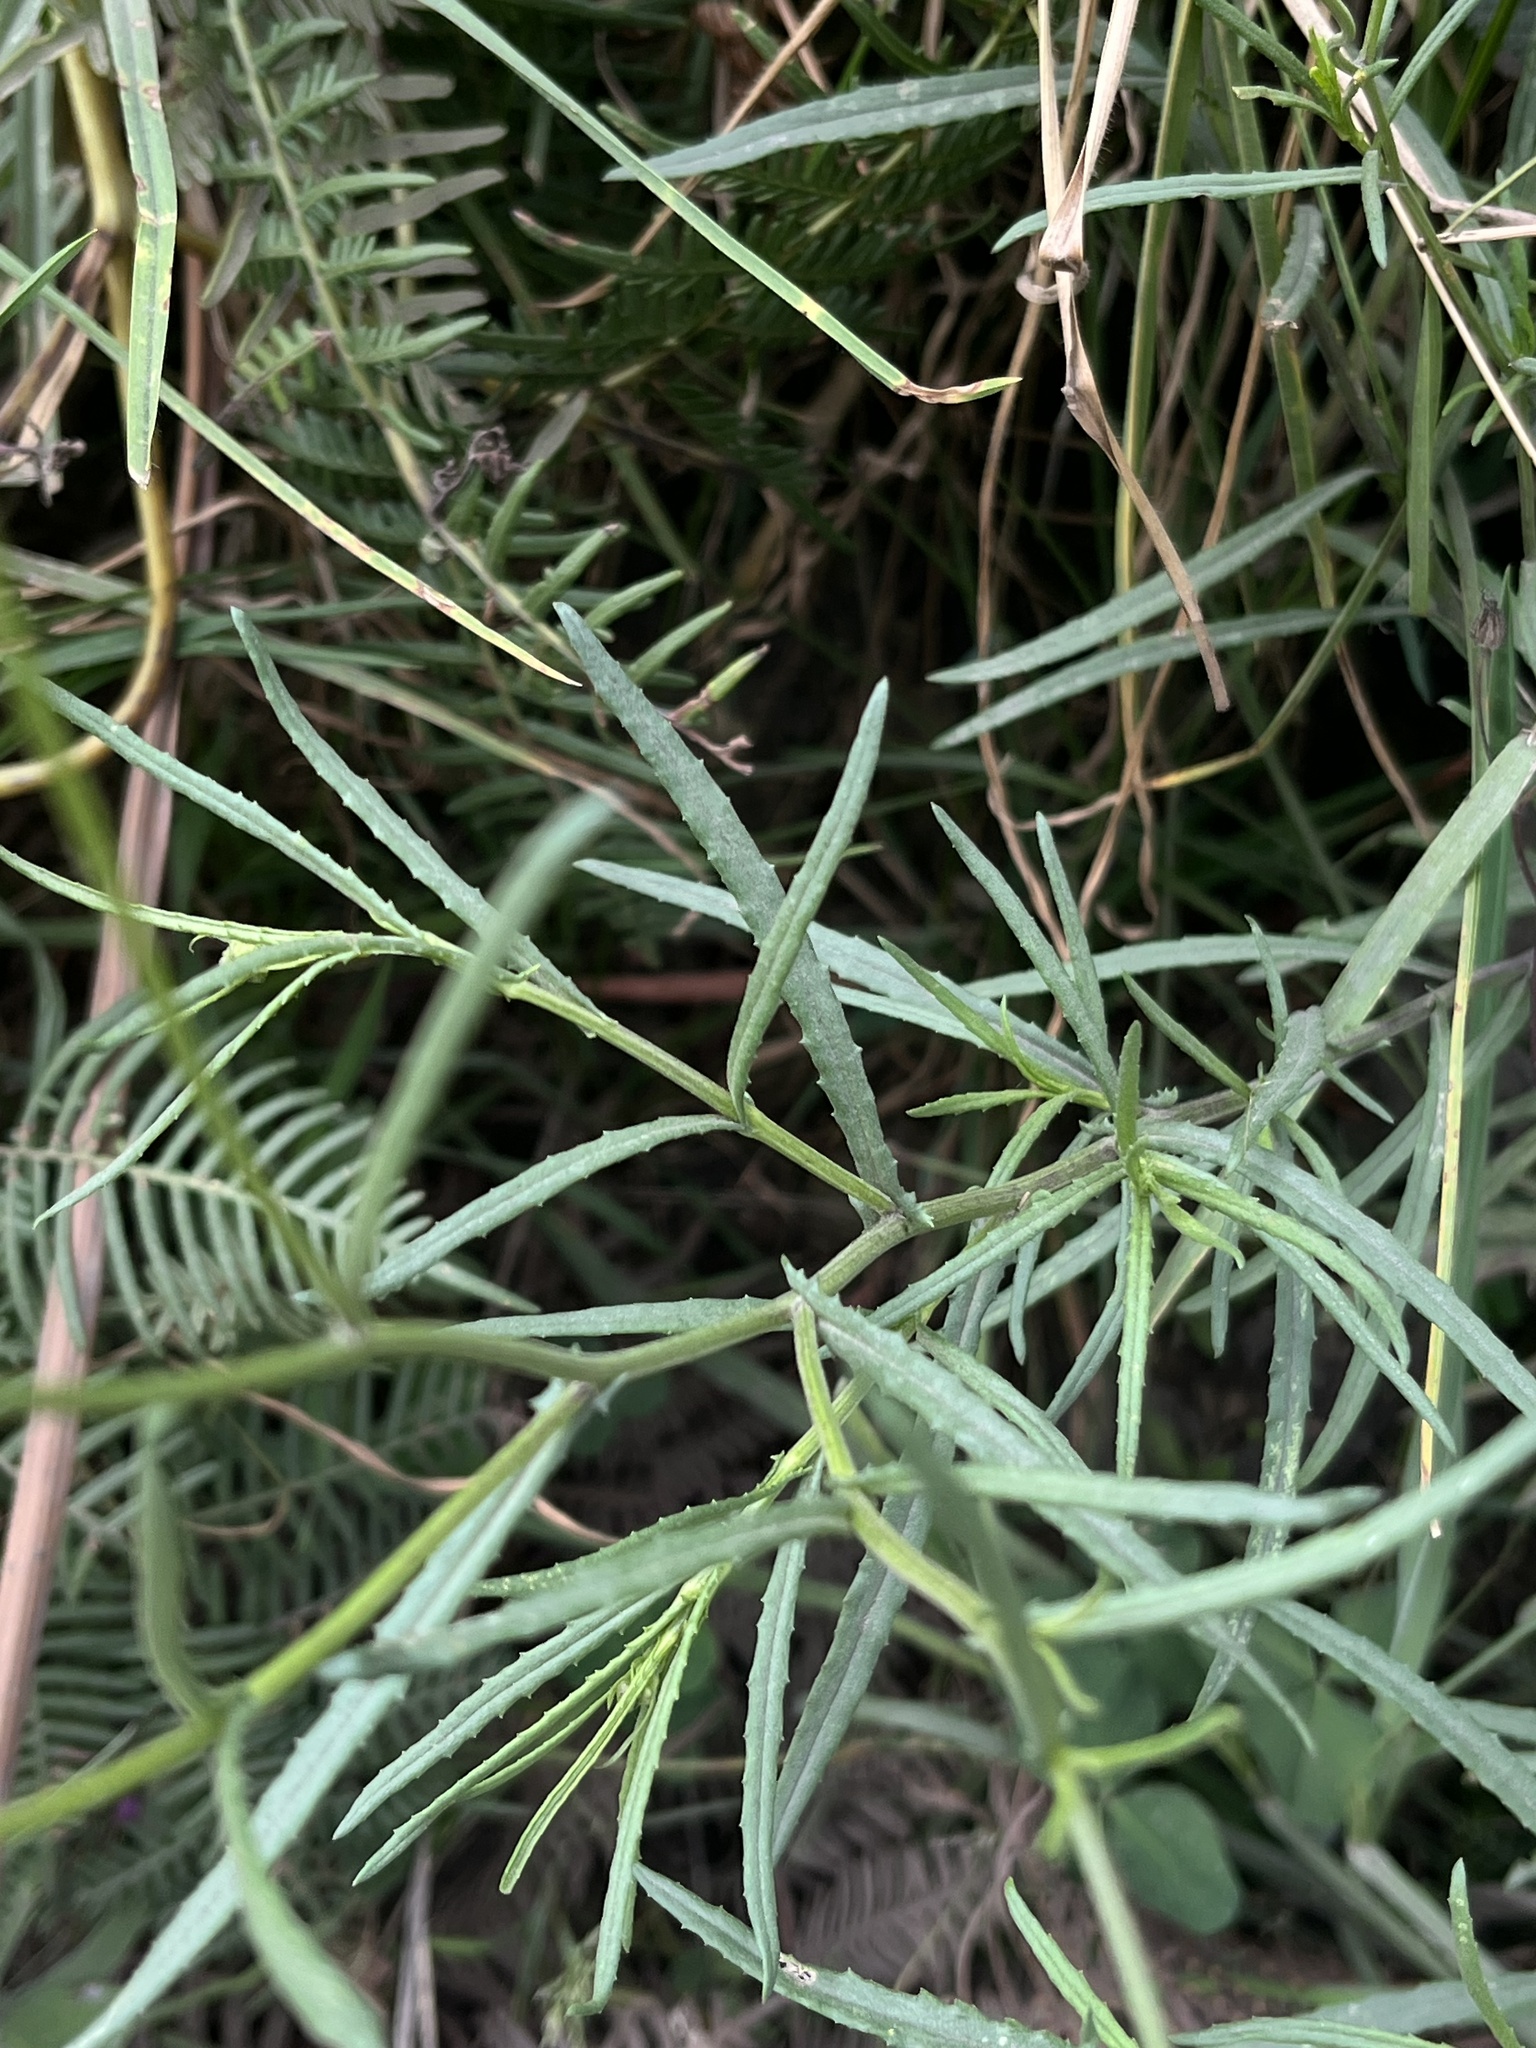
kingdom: Plantae
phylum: Tracheophyta
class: Magnoliopsida
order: Asterales
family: Asteraceae
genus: Senecio
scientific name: Senecio madagascariensis
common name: Madagascar ragwort
